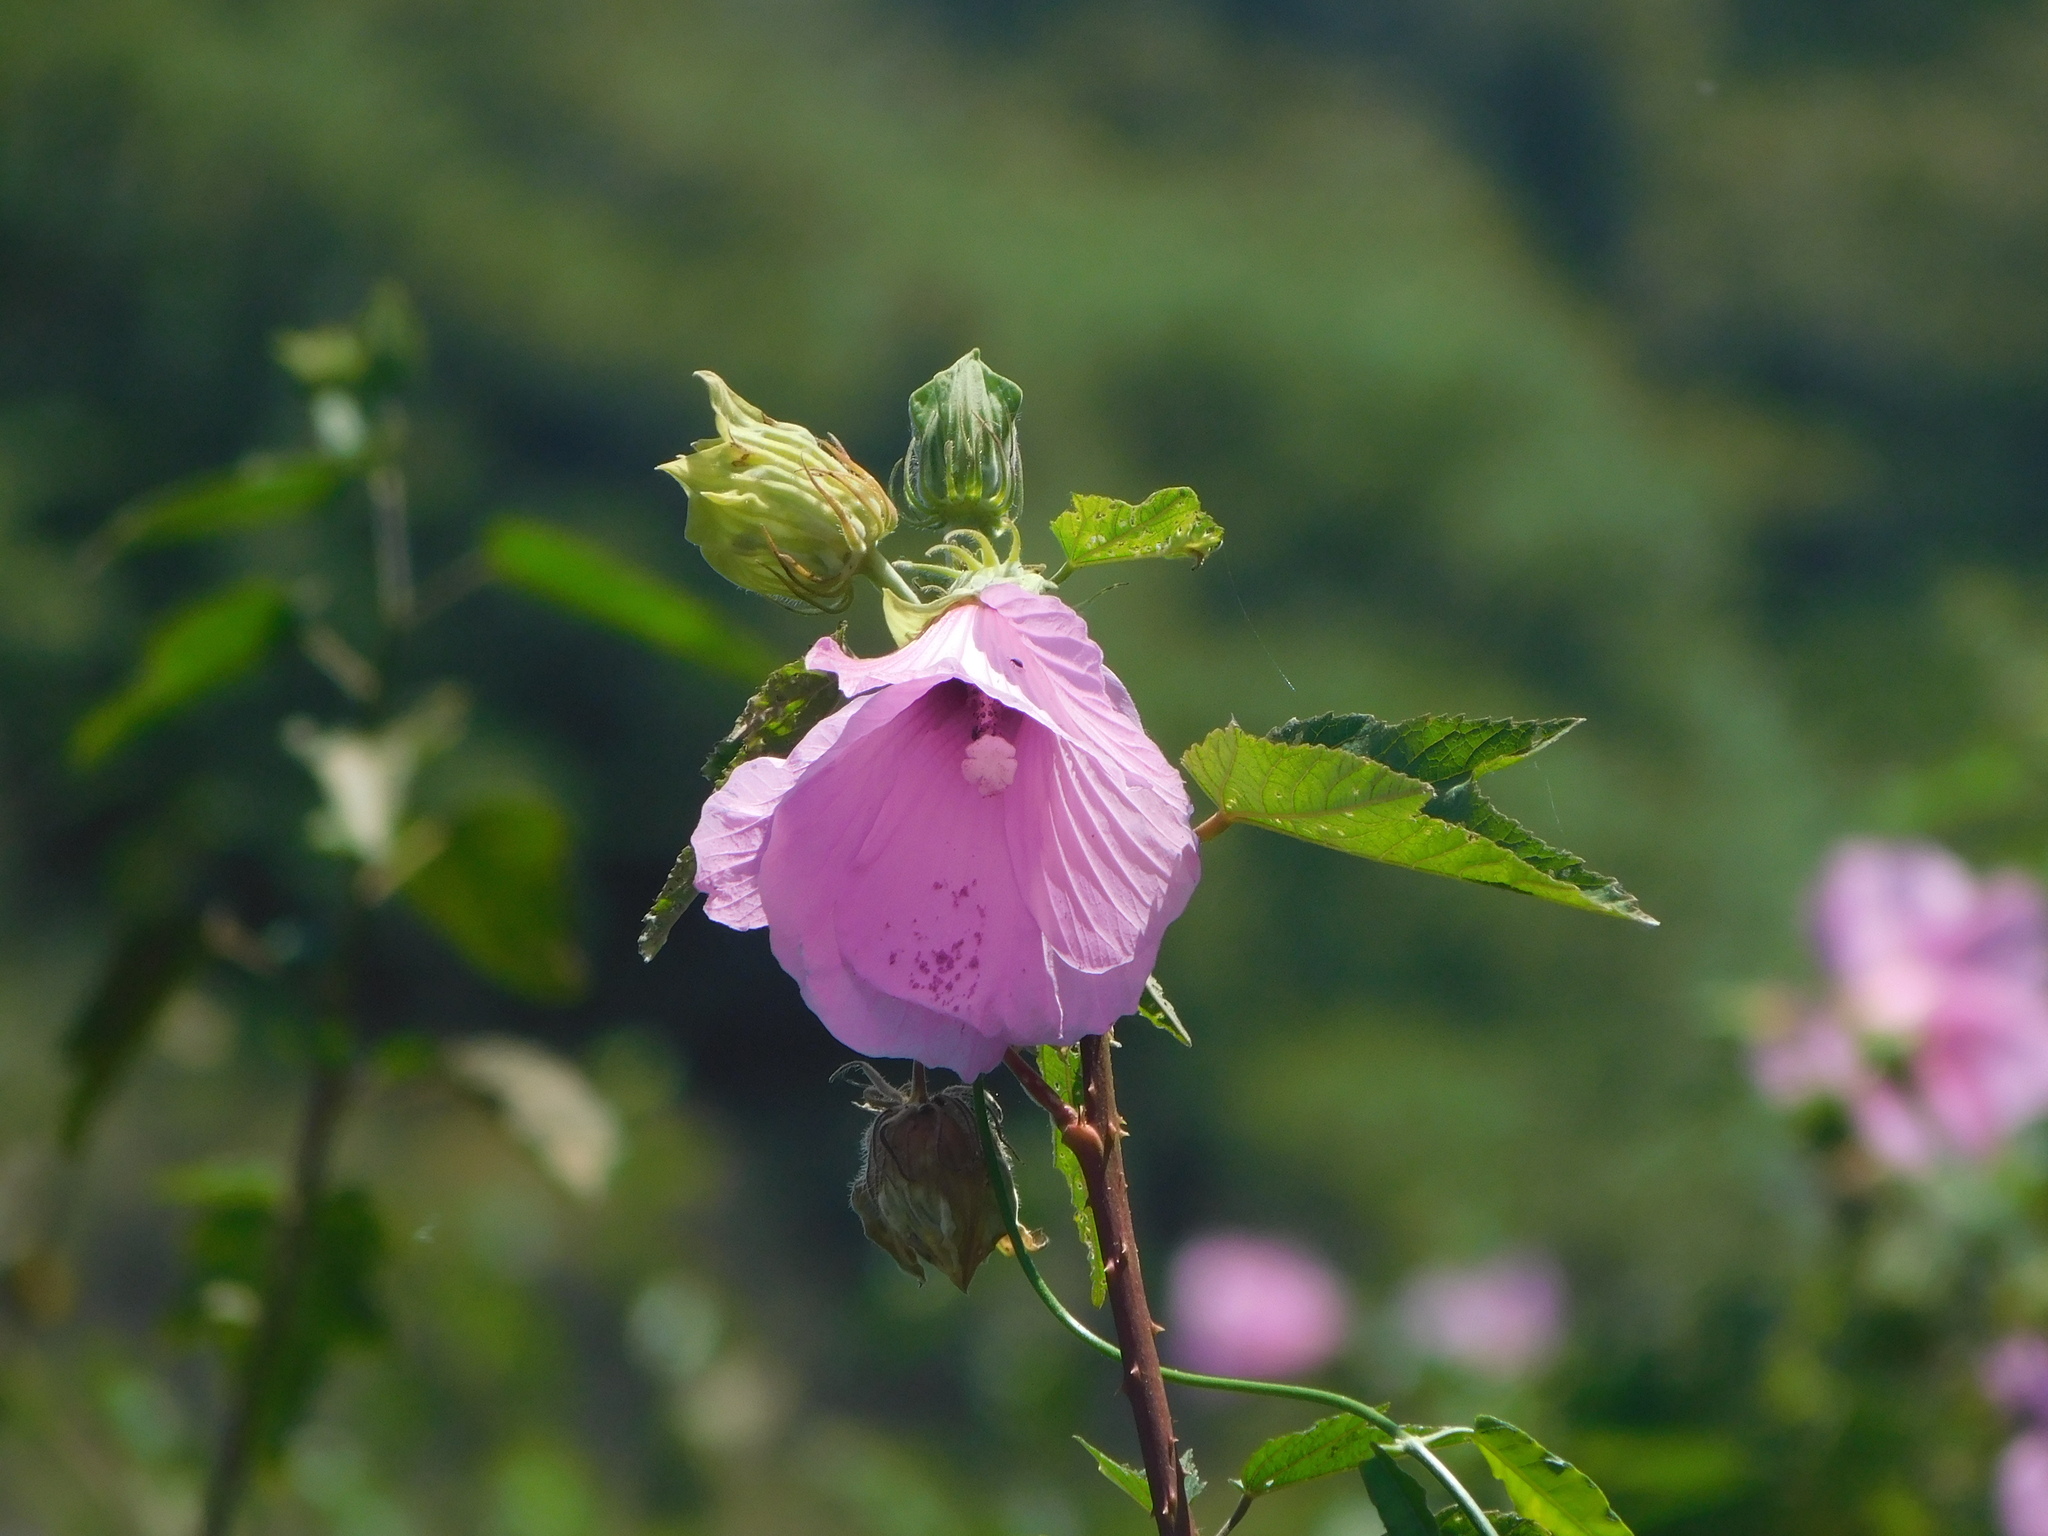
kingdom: Plantae
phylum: Tracheophyta
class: Magnoliopsida
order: Malvales
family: Malvaceae
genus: Hibiscus
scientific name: Hibiscus striatus
